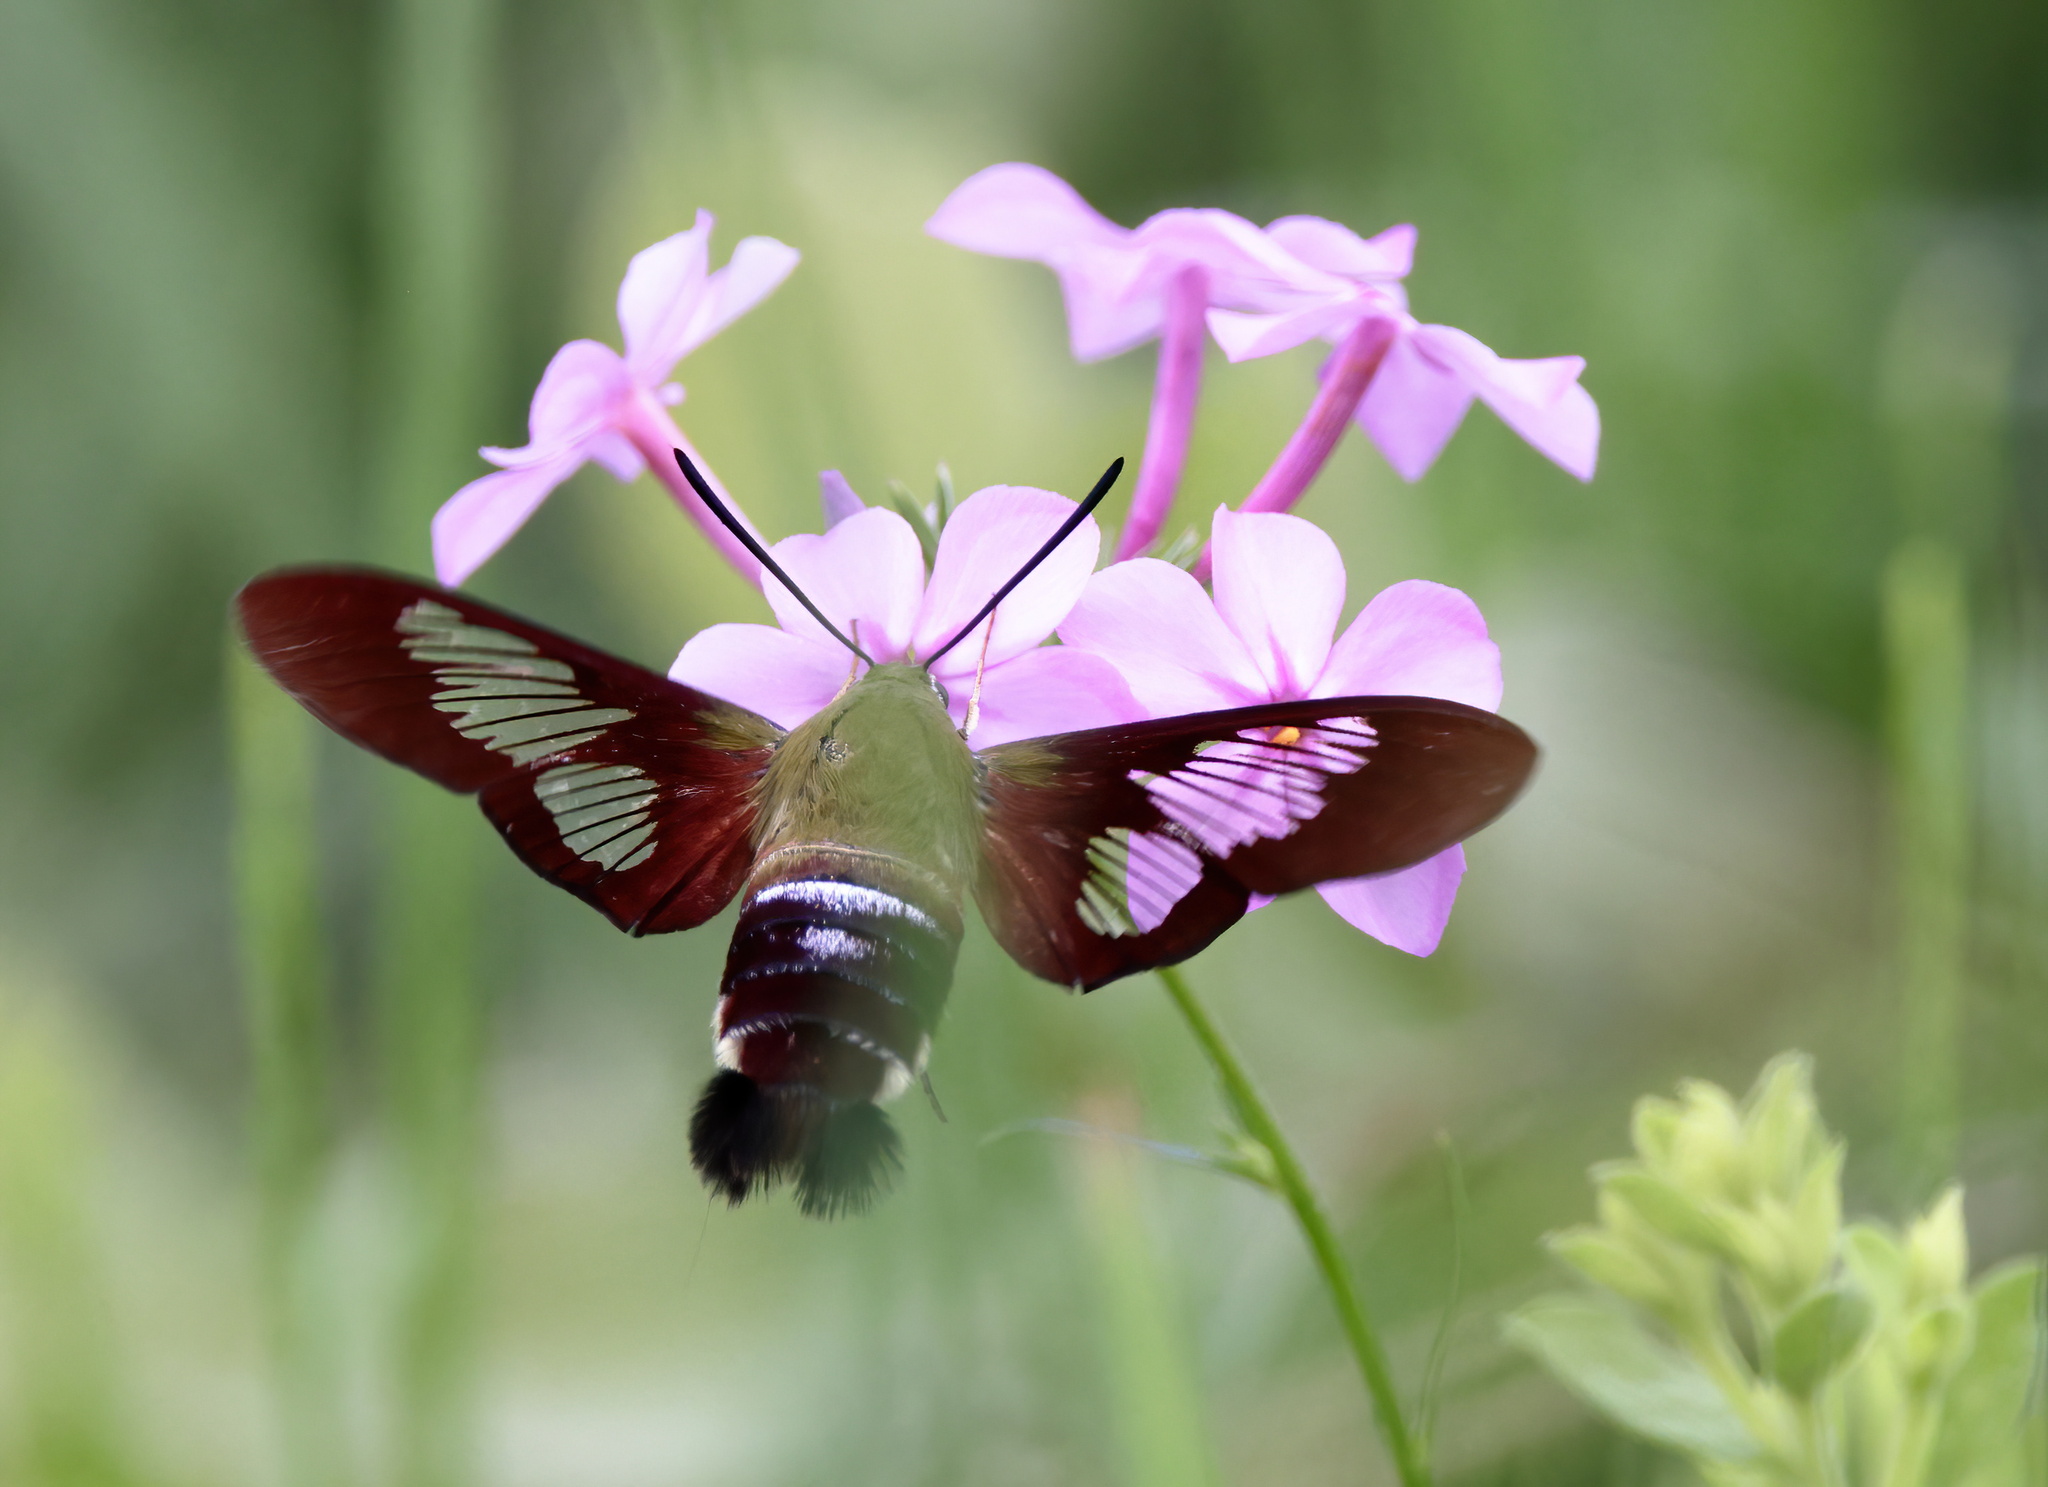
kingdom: Animalia
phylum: Arthropoda
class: Insecta
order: Lepidoptera
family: Sphingidae
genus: Hemaris
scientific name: Hemaris thysbe
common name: Common clear-wing
